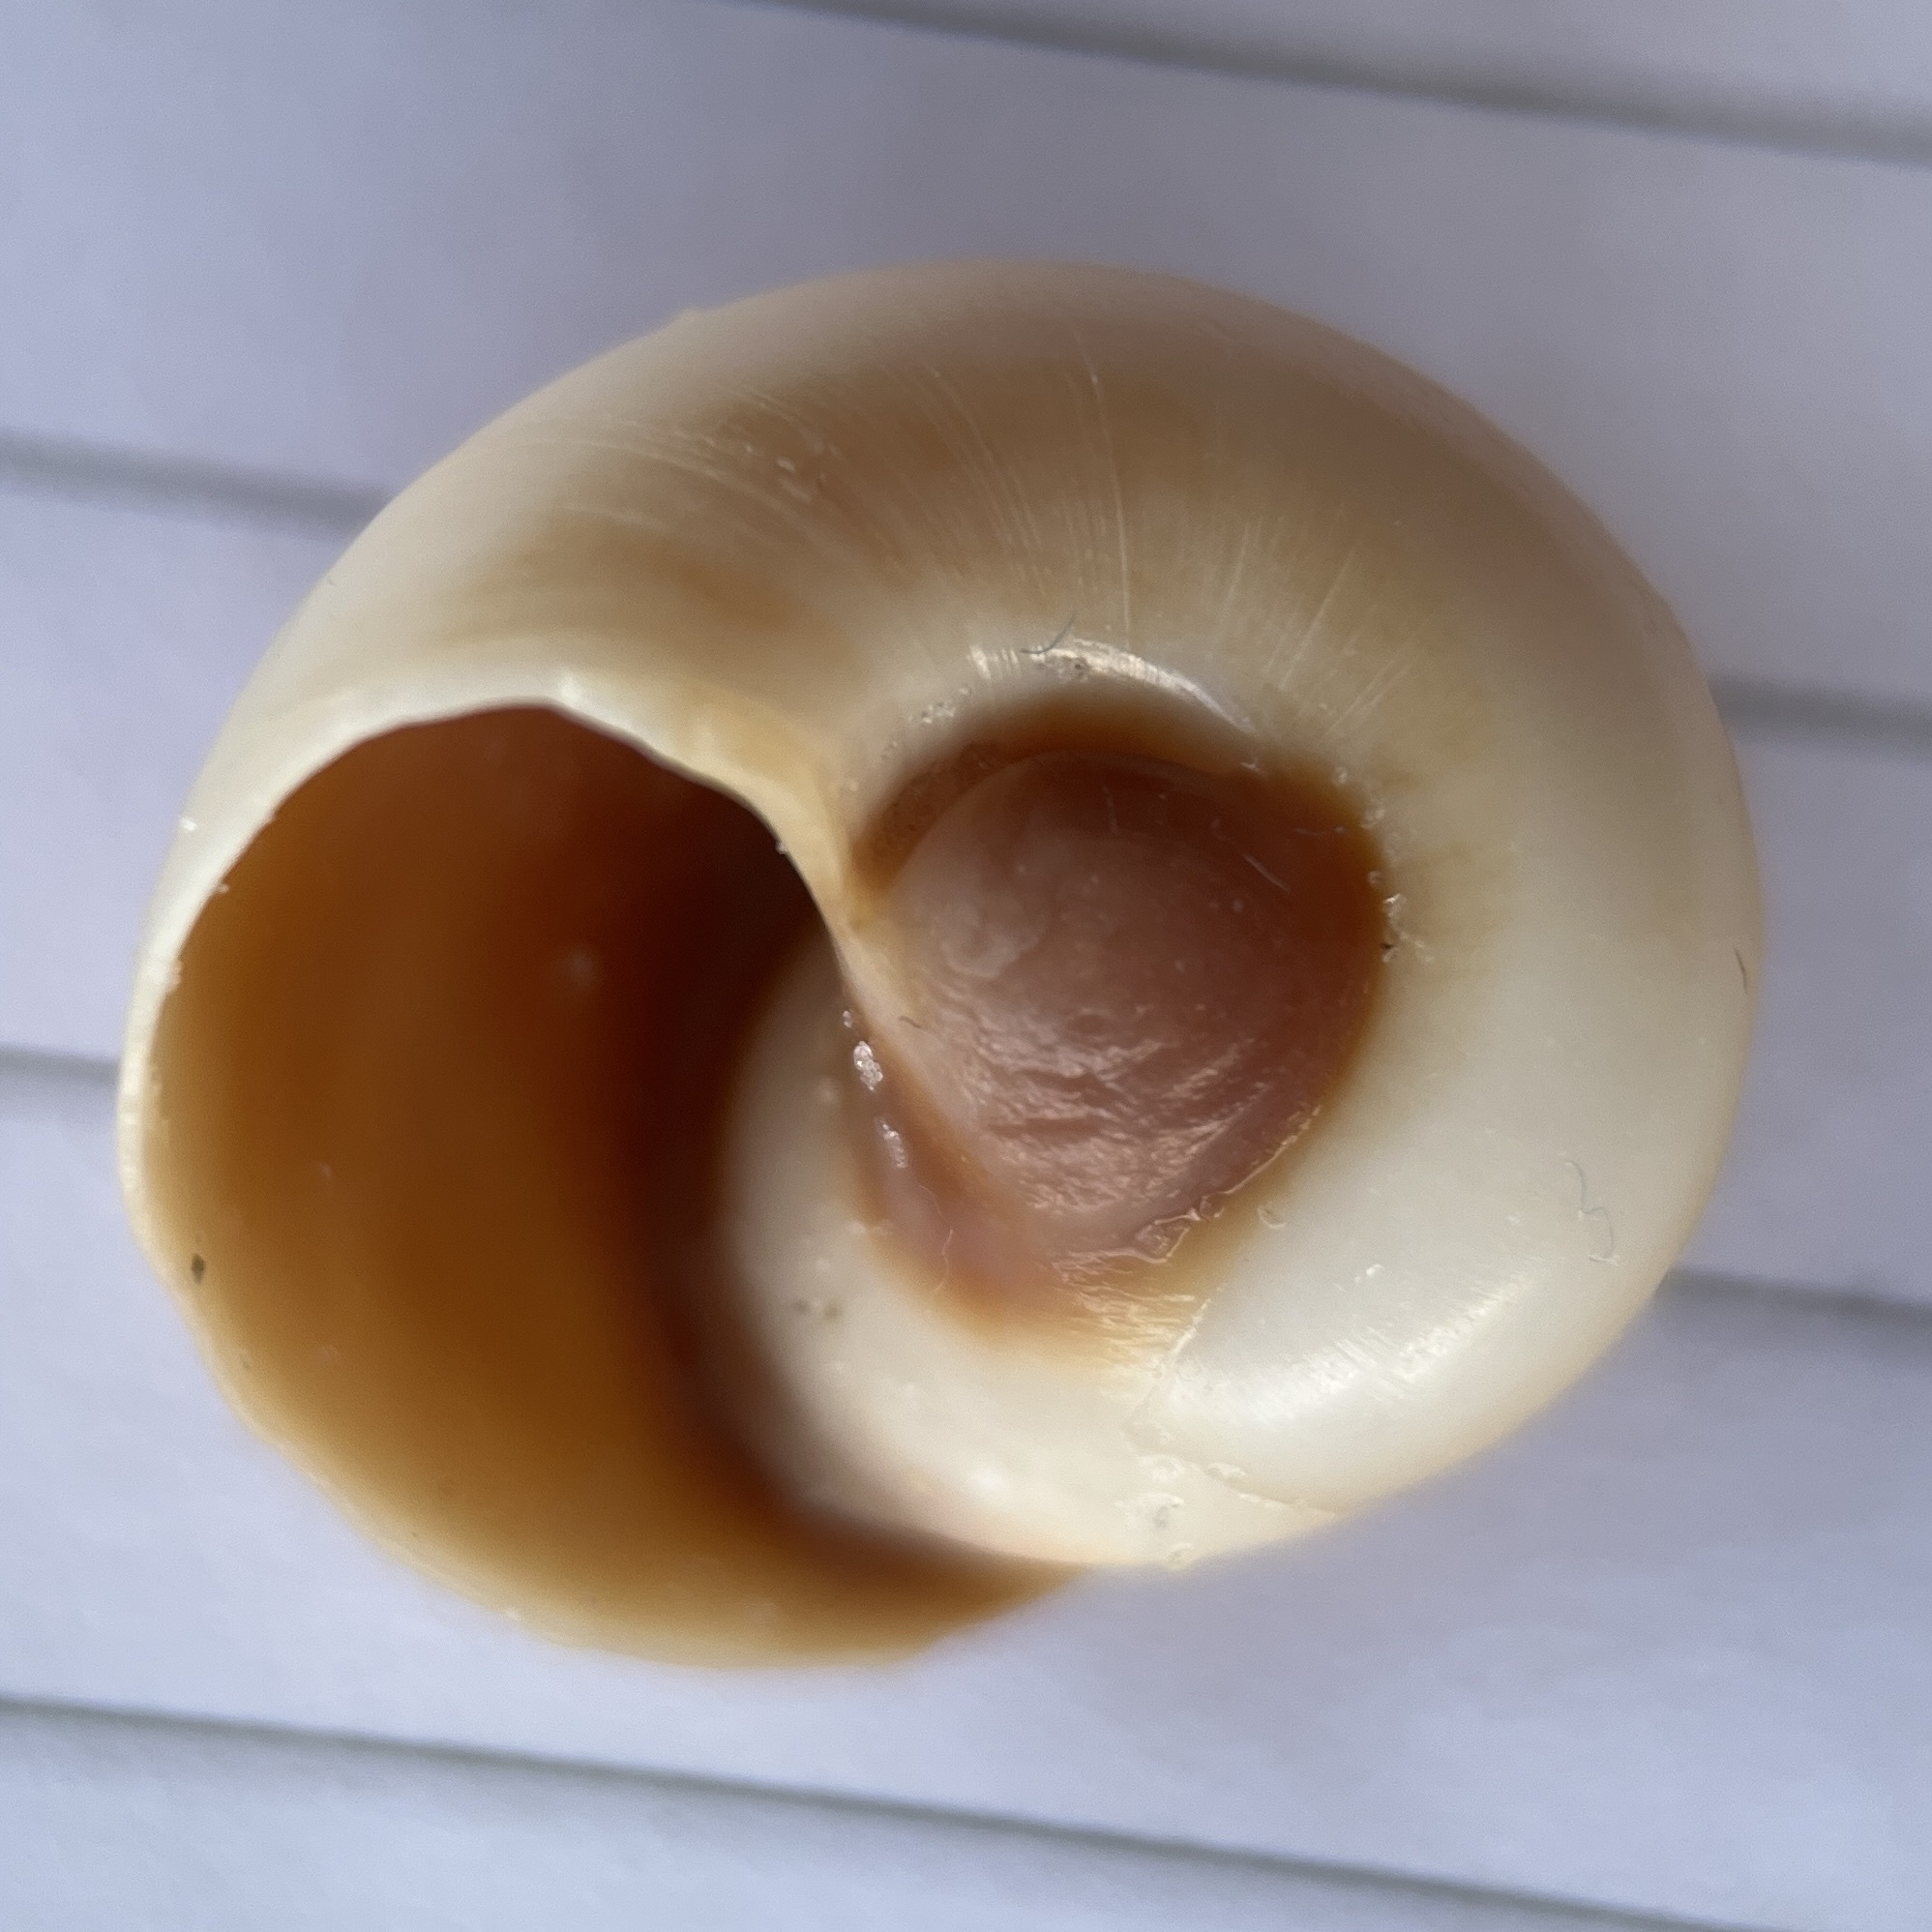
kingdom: Animalia
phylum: Mollusca
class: Gastropoda
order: Littorinimorpha
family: Naticidae
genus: Neverita
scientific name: Neverita duplicata
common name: Lobed moonsnail
